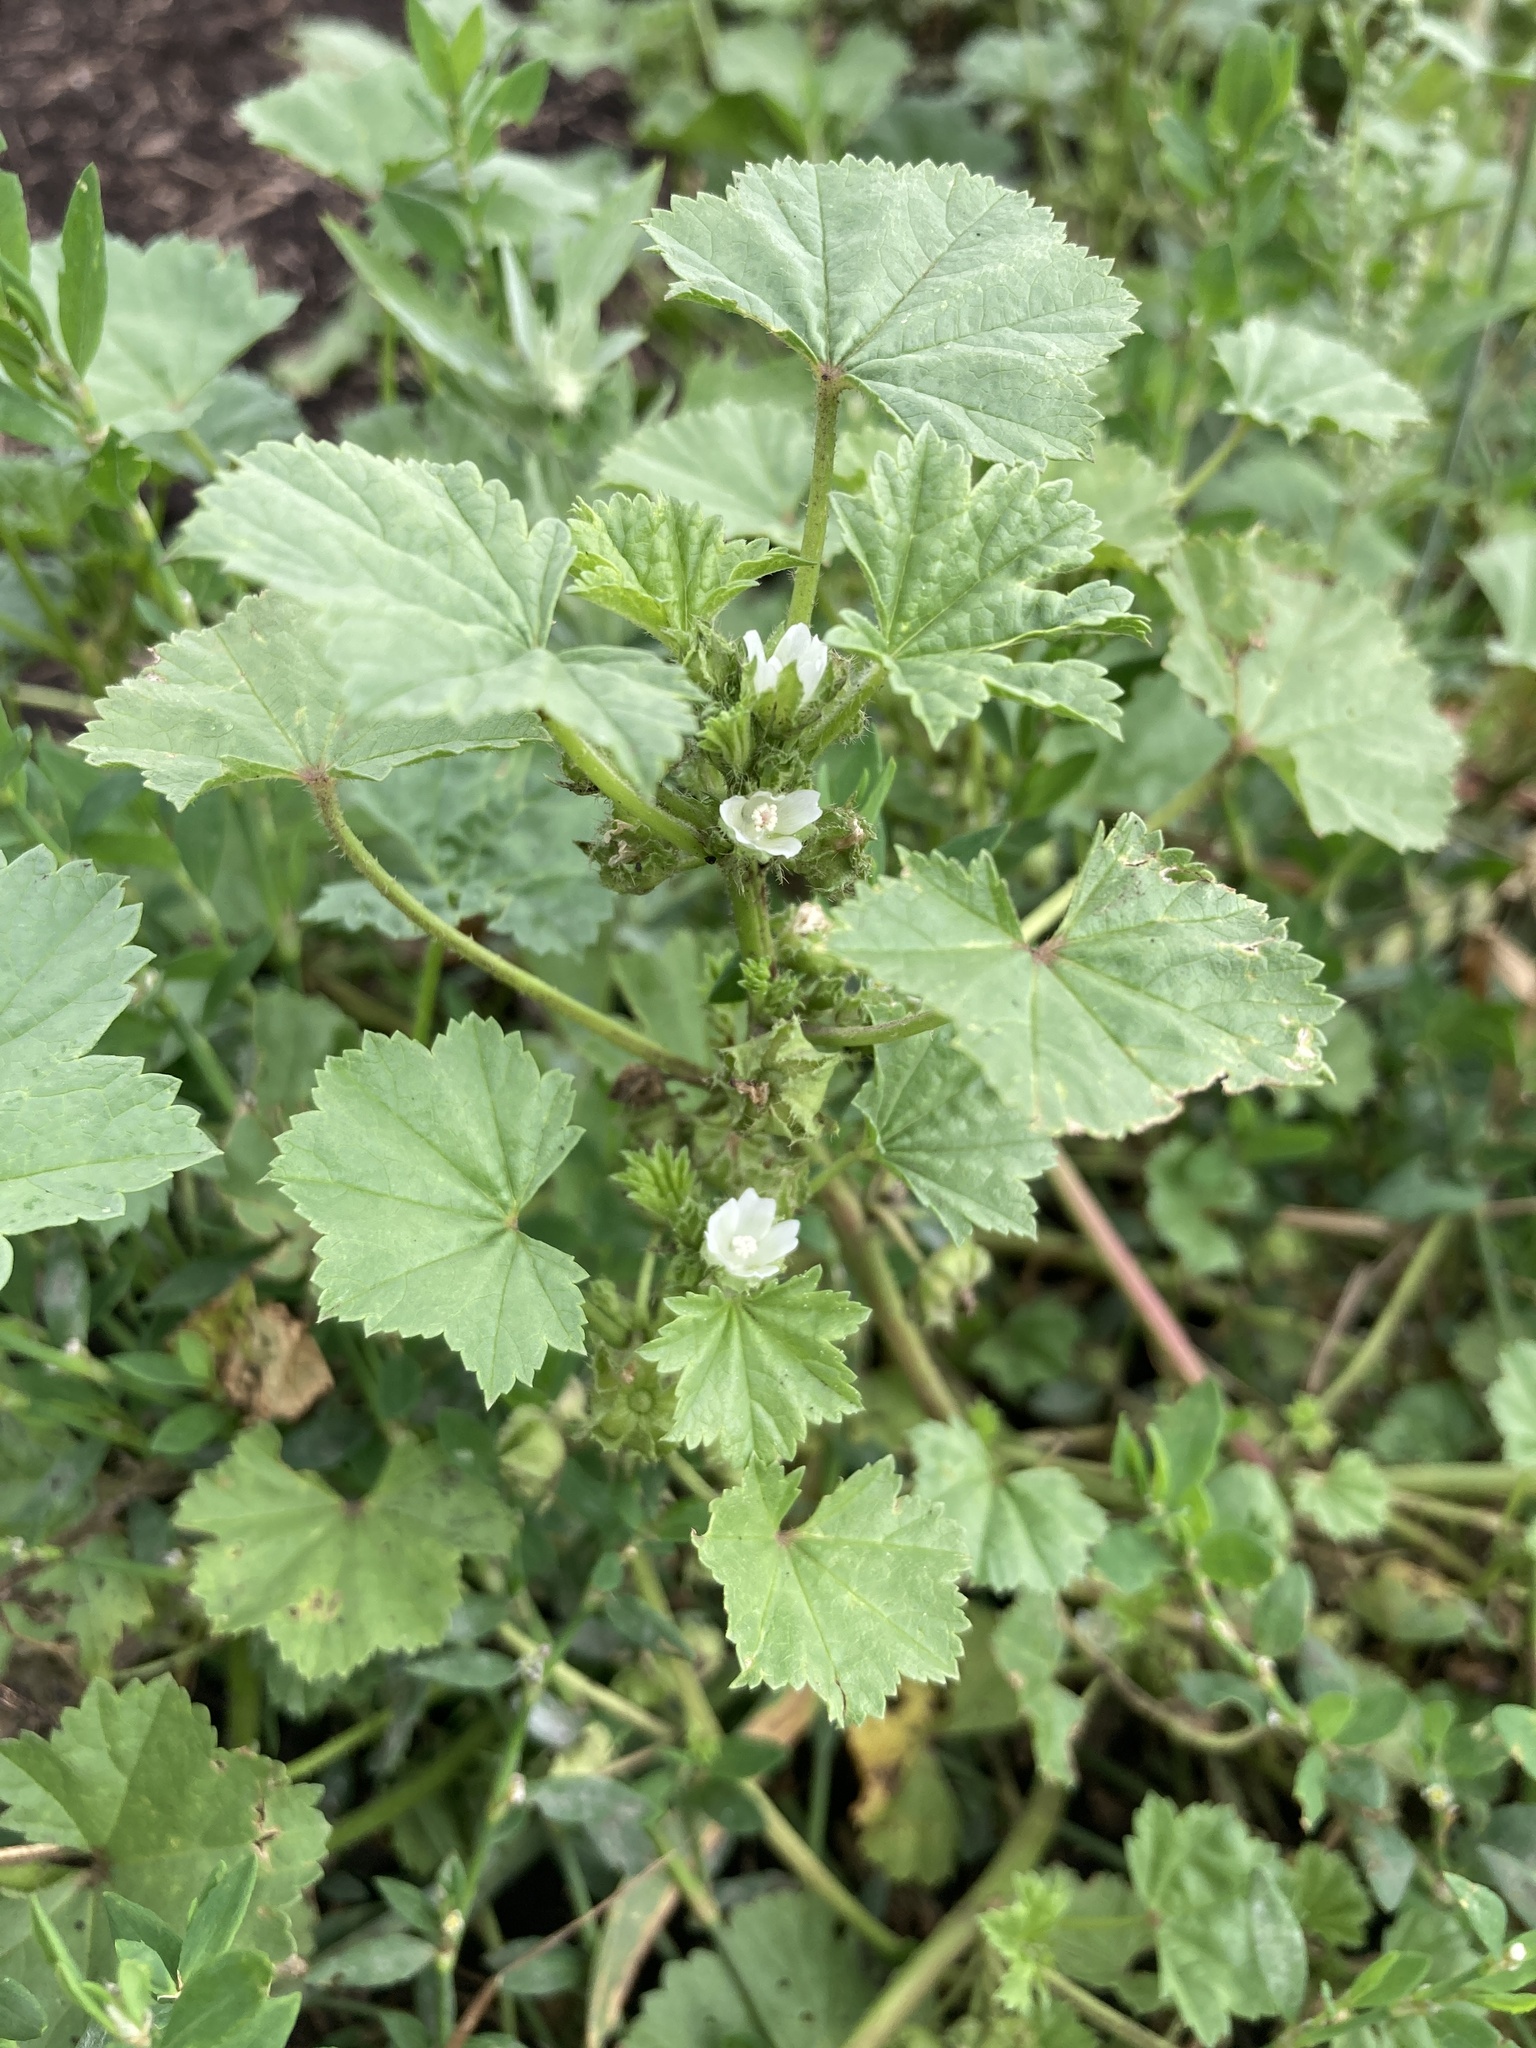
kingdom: Plantae
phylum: Tracheophyta
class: Magnoliopsida
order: Malvales
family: Malvaceae
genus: Malva
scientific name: Malva pusilla
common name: Small mallow
